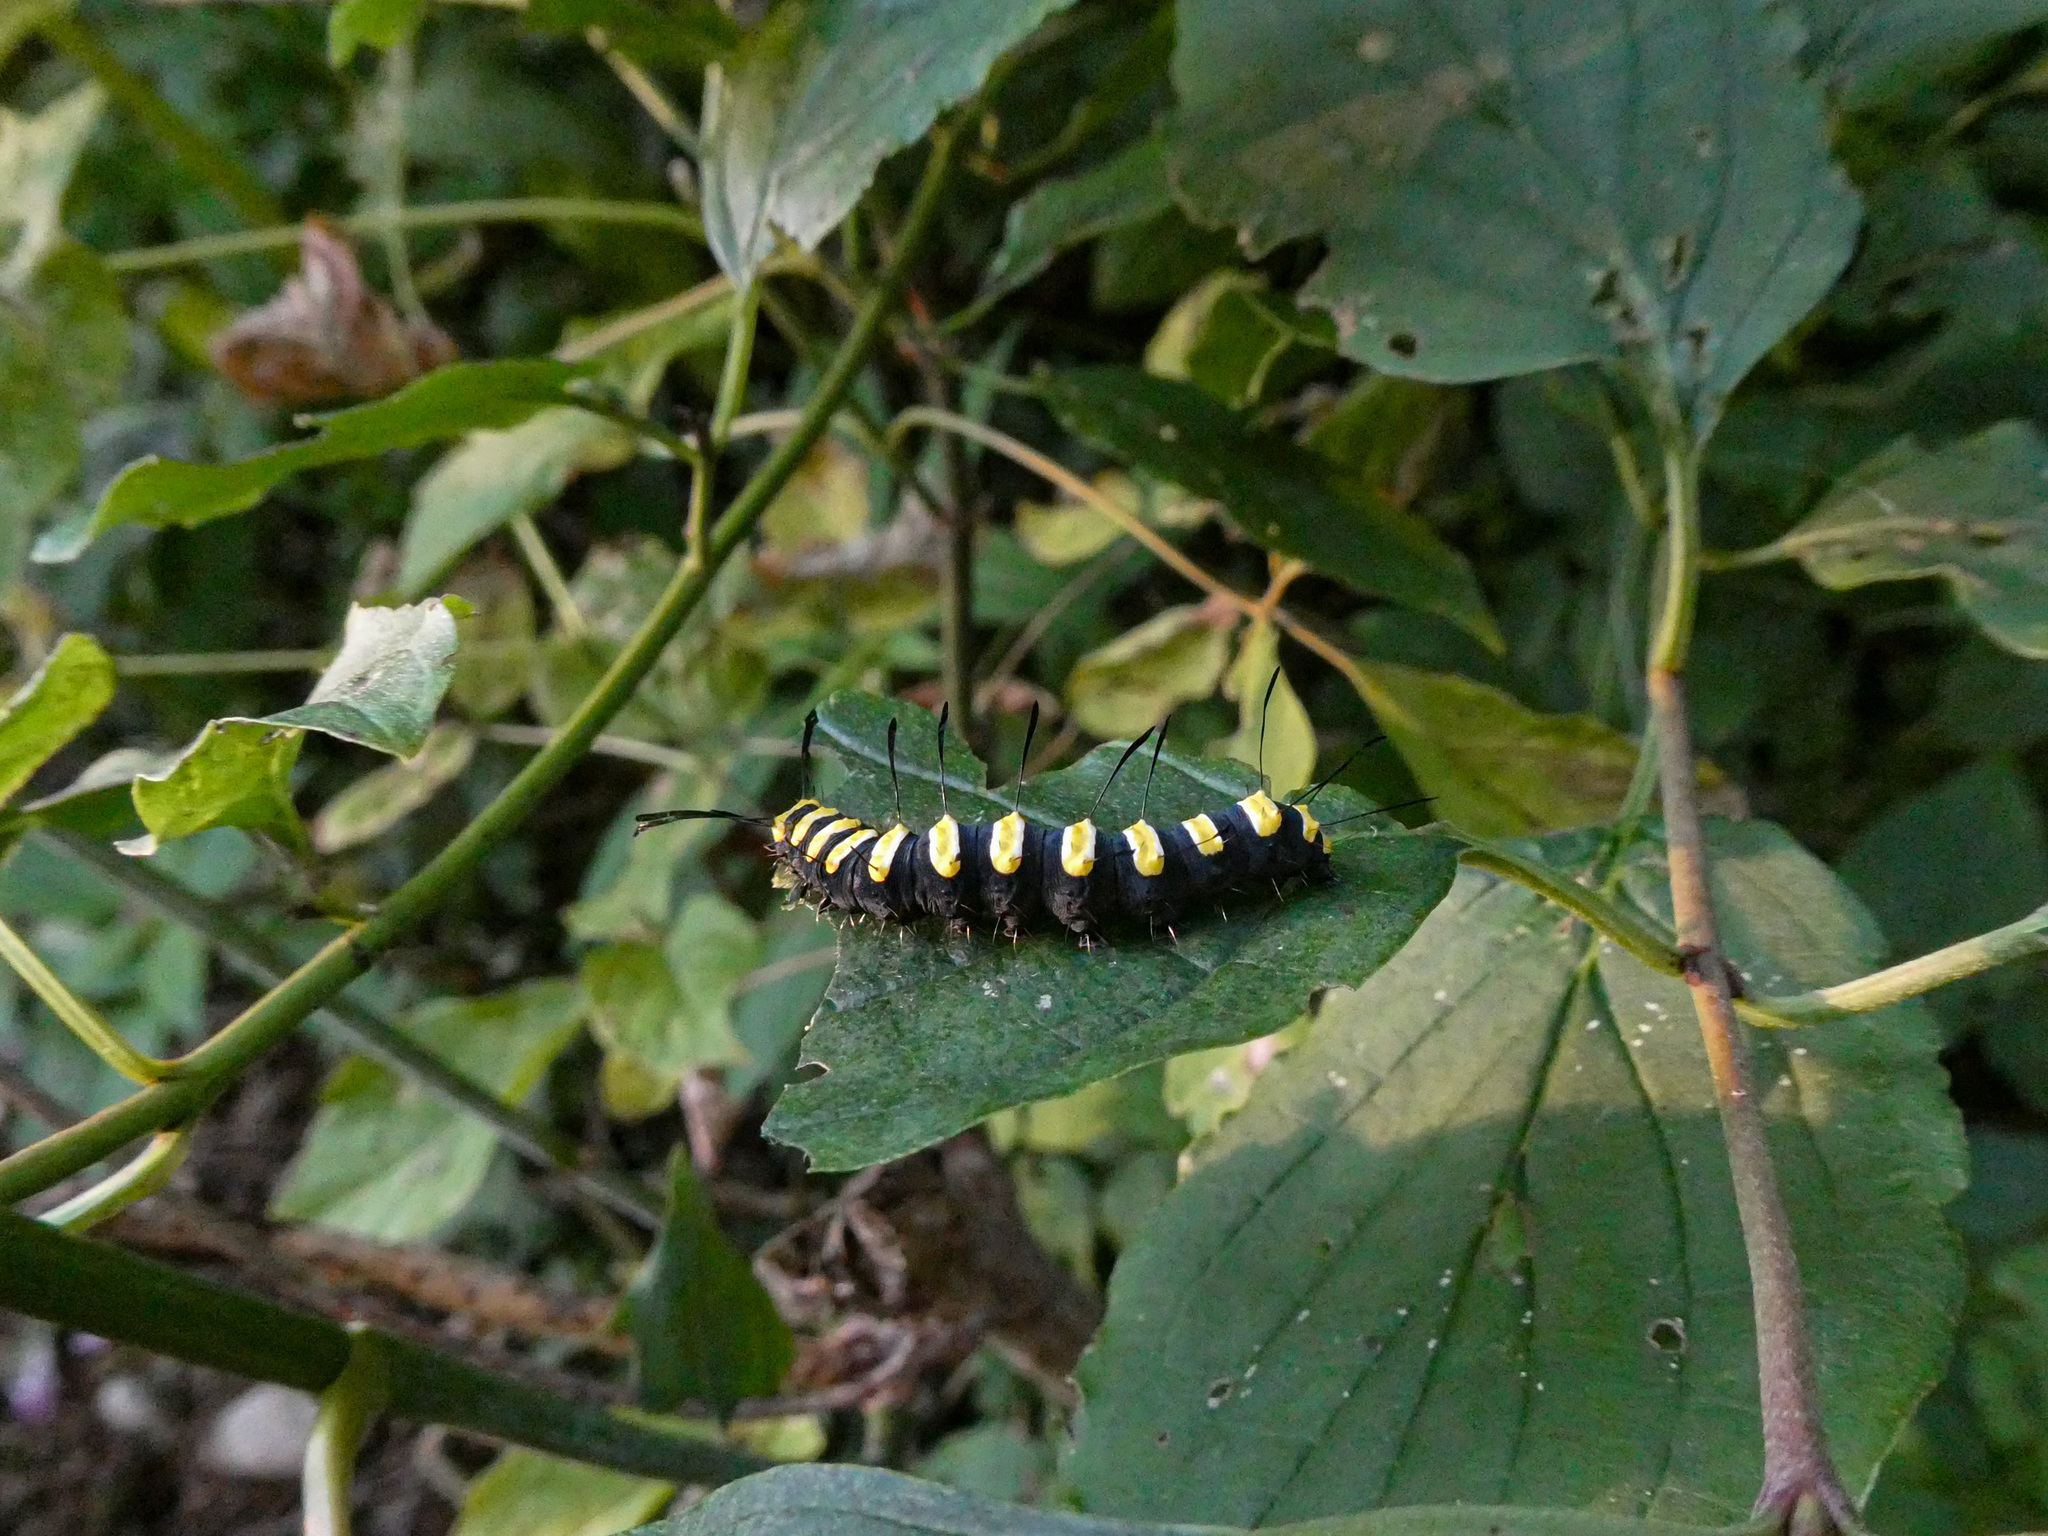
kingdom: Animalia
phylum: Arthropoda
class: Insecta
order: Lepidoptera
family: Noctuidae
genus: Acronicta
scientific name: Acronicta alni
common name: Alder moth
